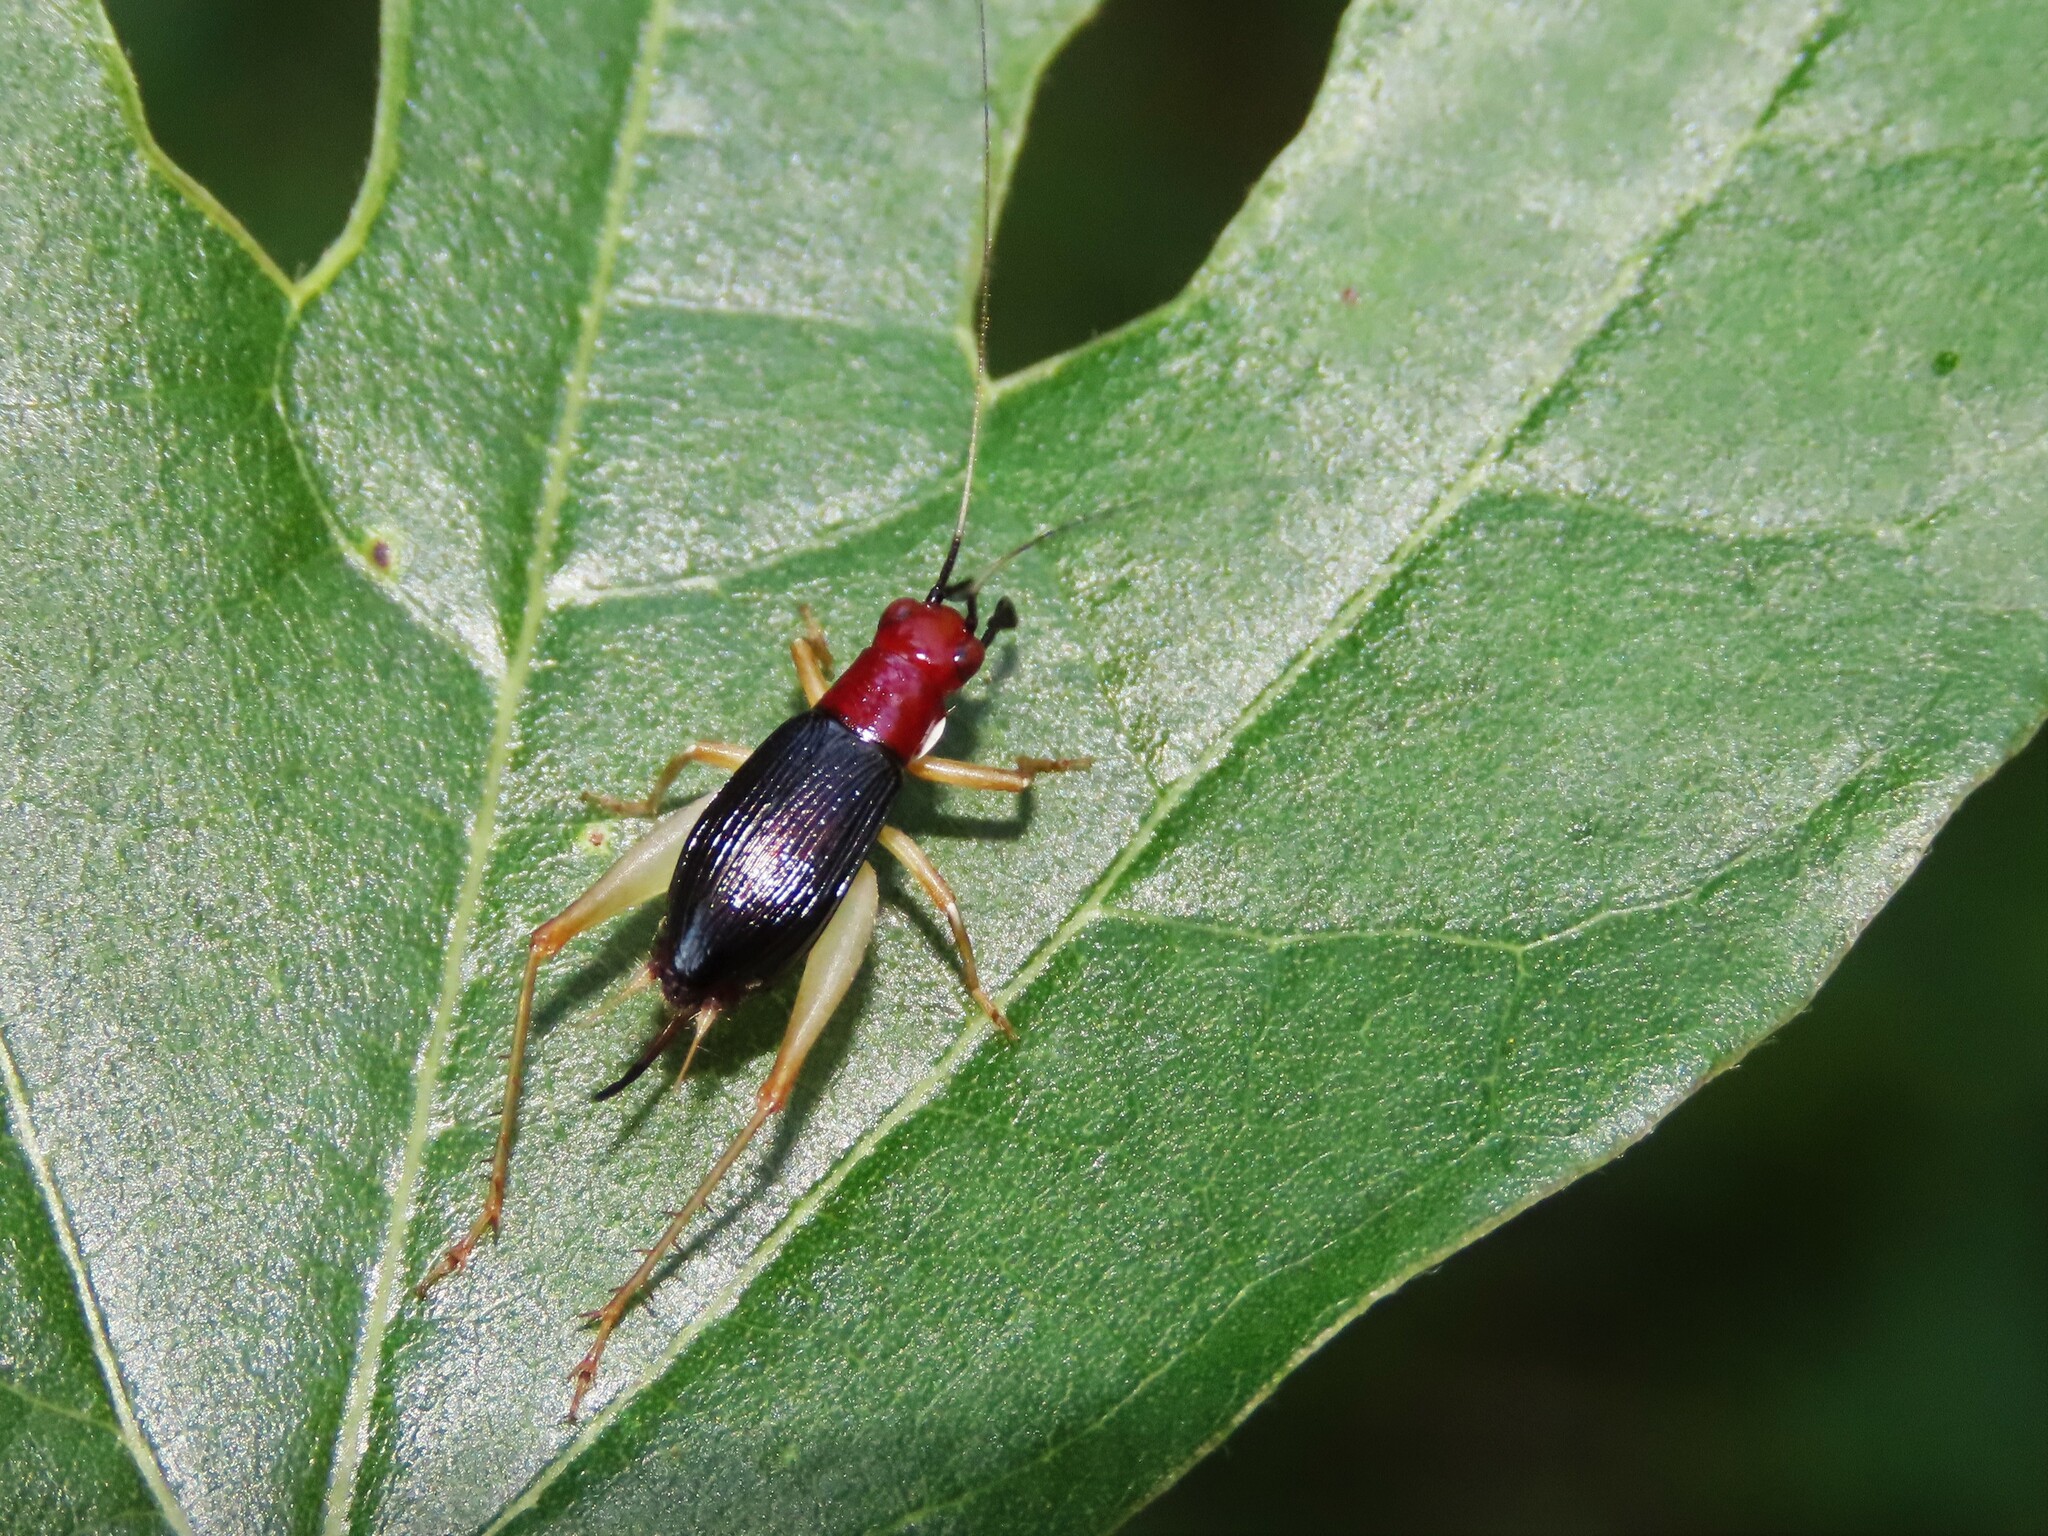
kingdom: Animalia
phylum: Arthropoda
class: Insecta
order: Orthoptera
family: Trigonidiidae
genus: Phyllopalpus
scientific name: Phyllopalpus pulchellus
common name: Handsome trig
